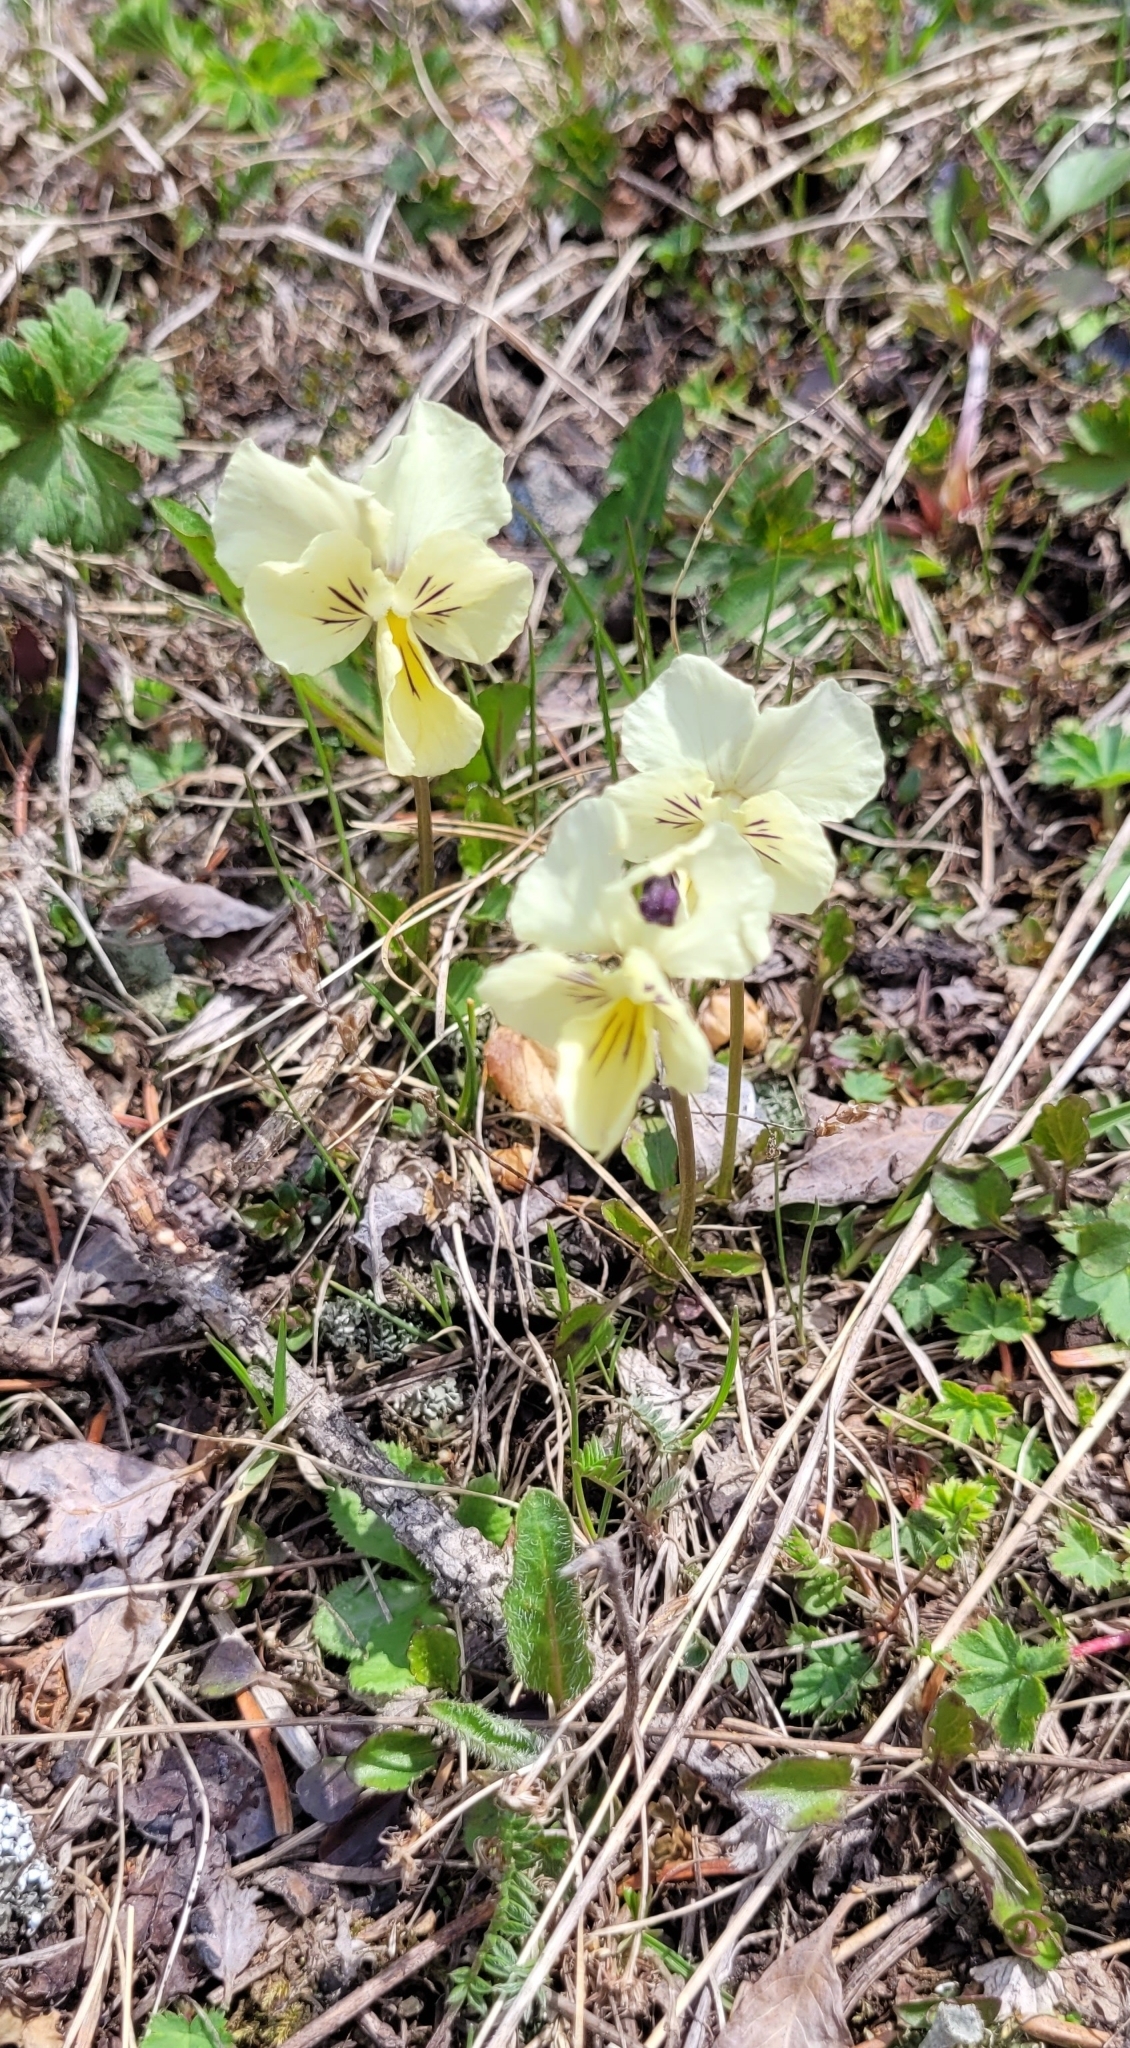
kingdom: Plantae
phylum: Tracheophyta
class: Magnoliopsida
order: Malpighiales
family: Violaceae
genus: Viola
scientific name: Viola altaica
